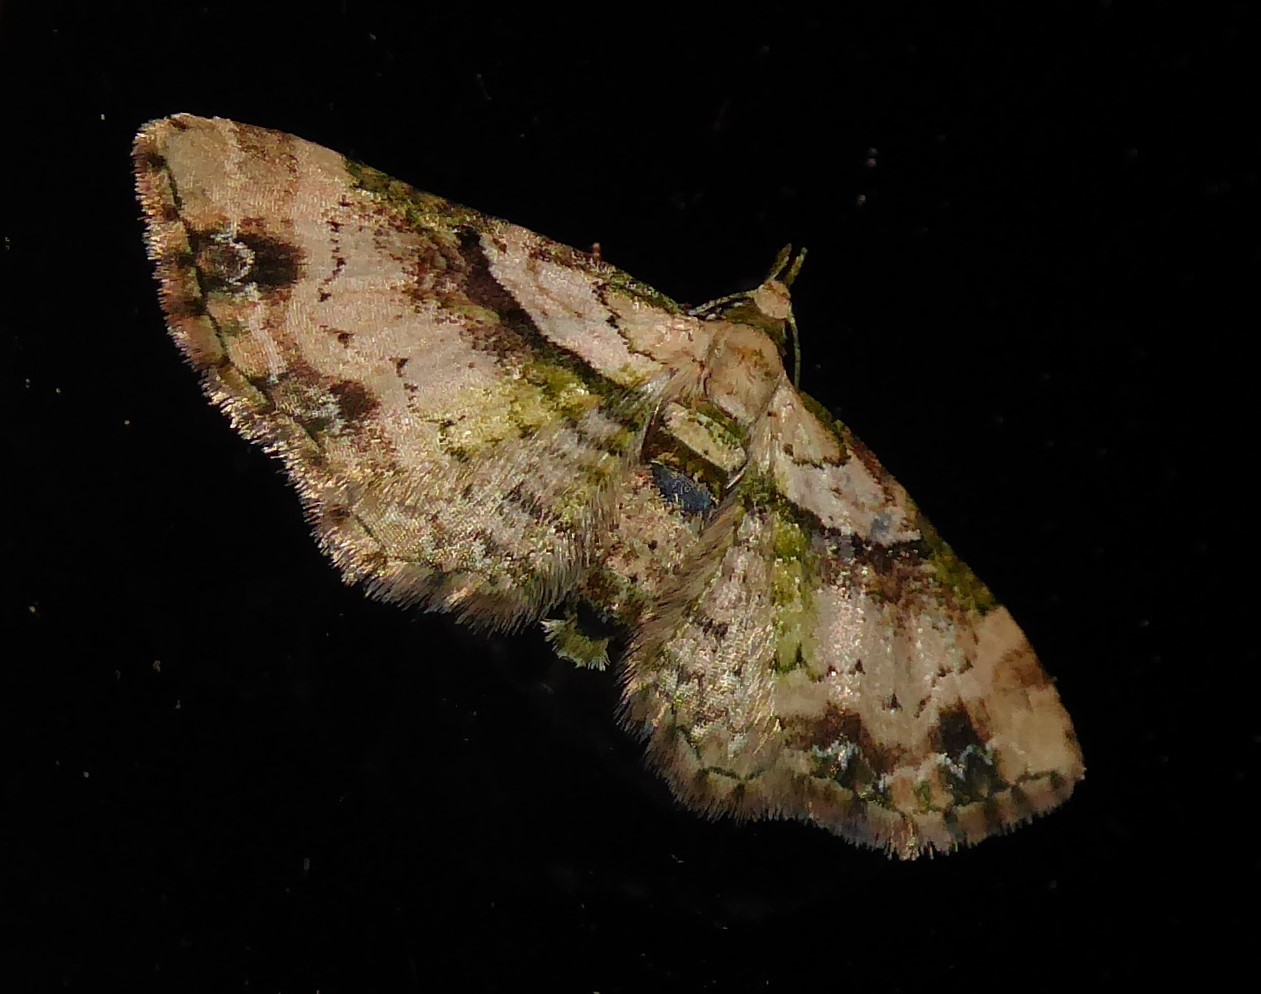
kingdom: Animalia
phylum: Arthropoda
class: Insecta
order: Lepidoptera
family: Geometridae
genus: Chloroclystis
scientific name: Chloroclystis
